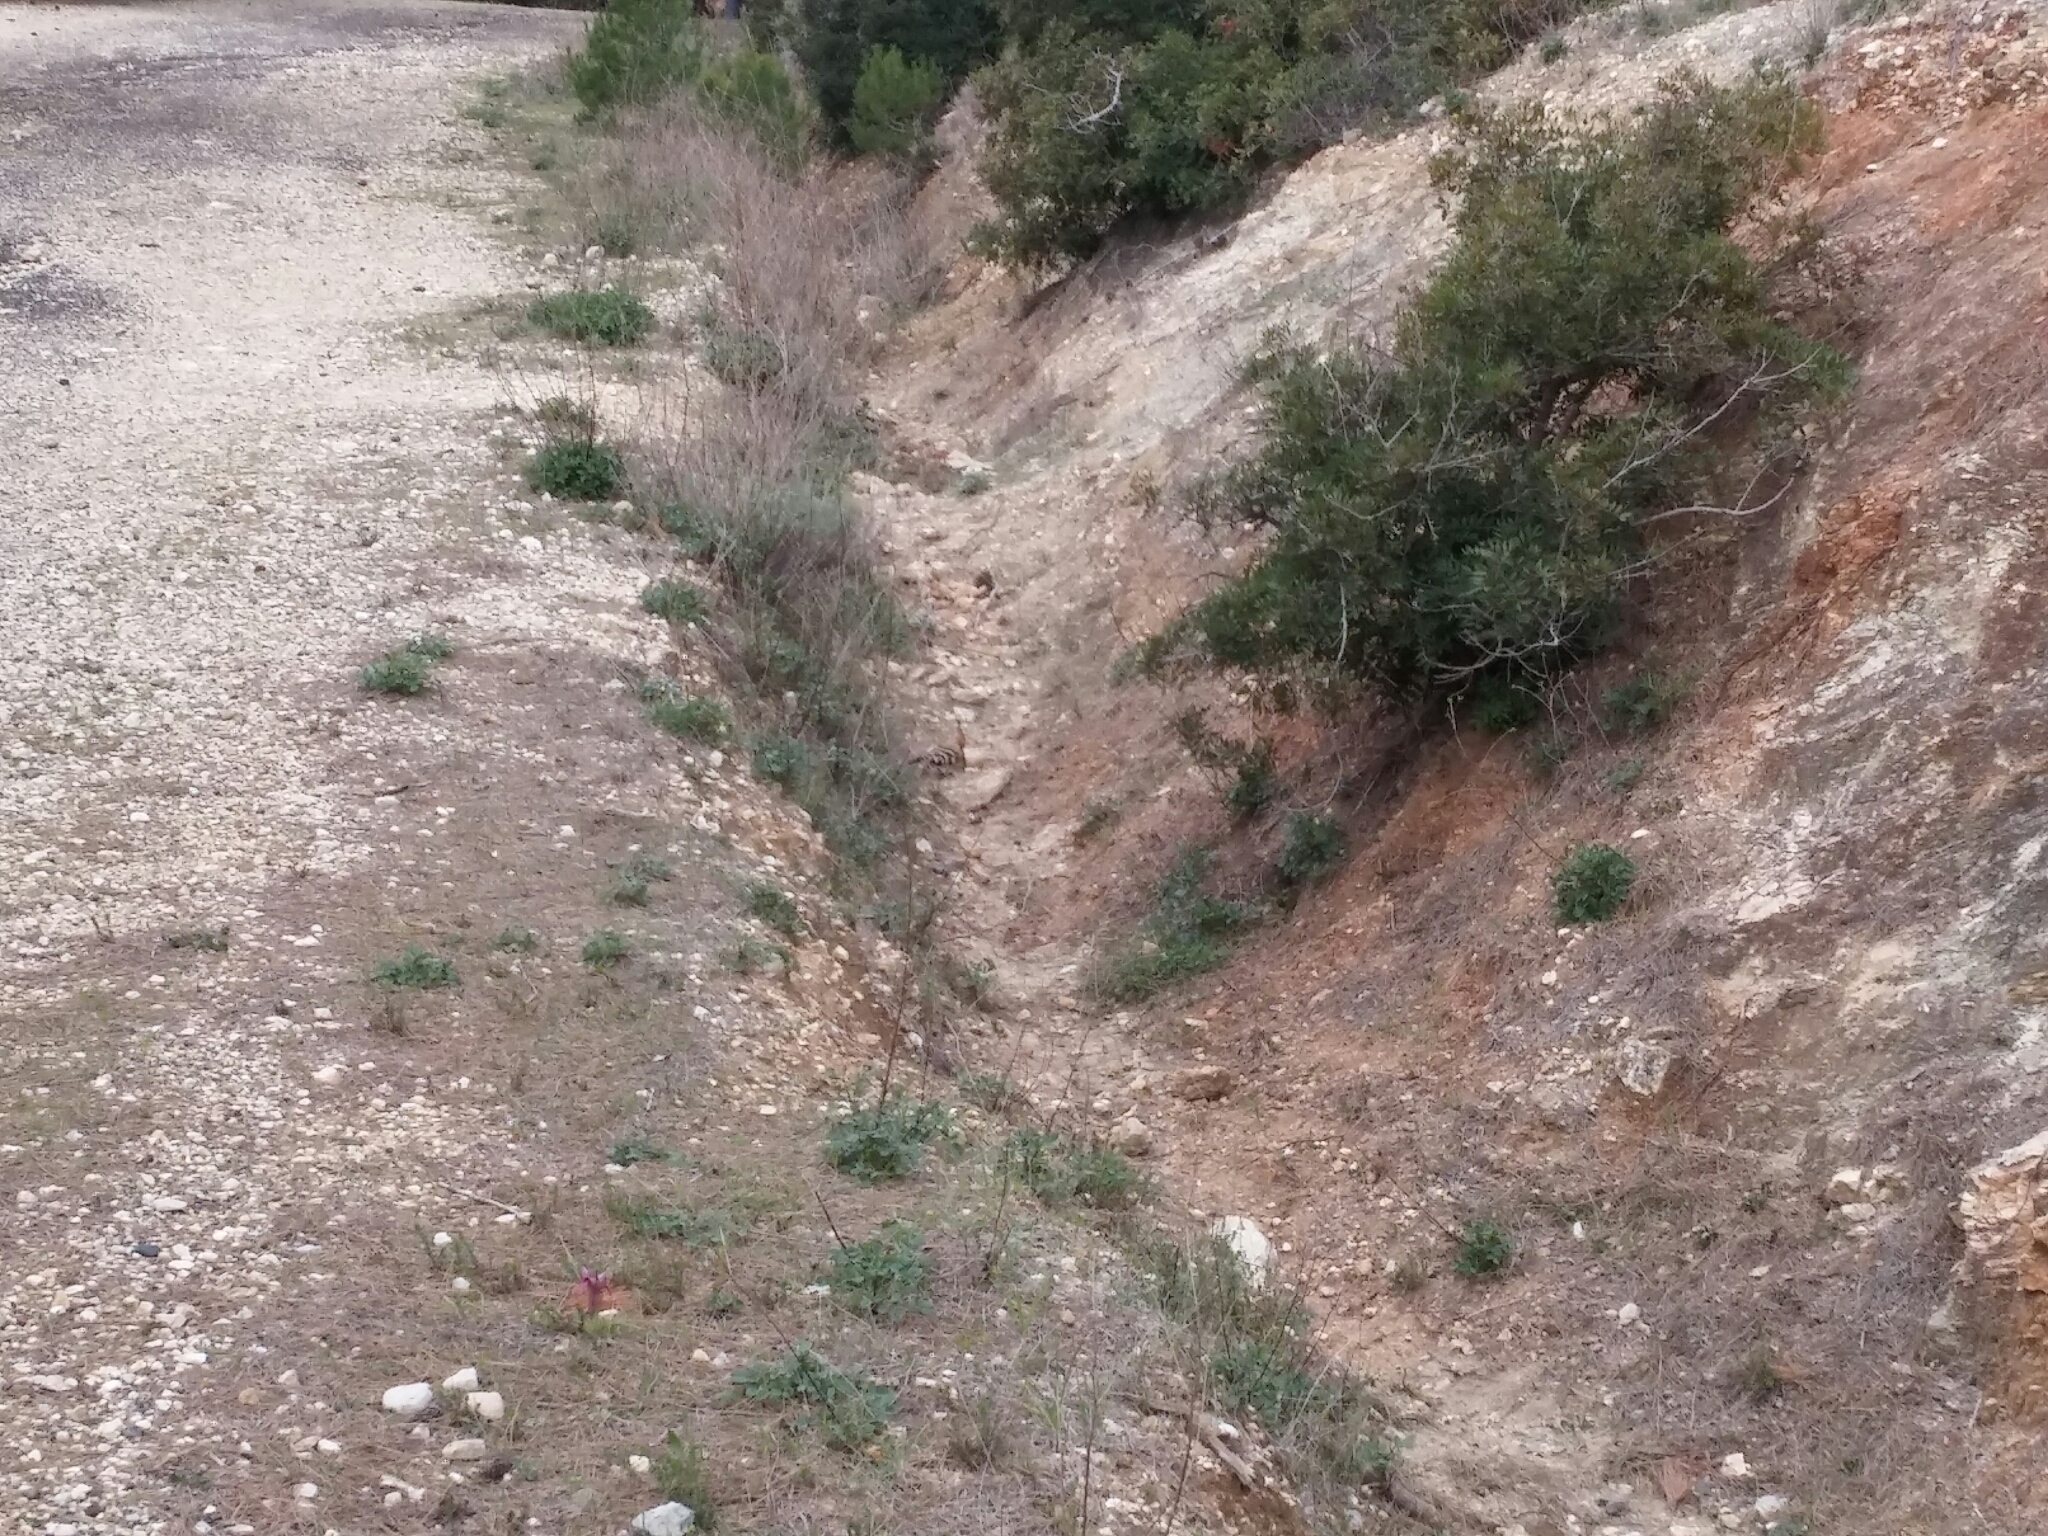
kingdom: Animalia
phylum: Chordata
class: Aves
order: Bucerotiformes
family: Upupidae
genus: Upupa
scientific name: Upupa epops
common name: Eurasian hoopoe
